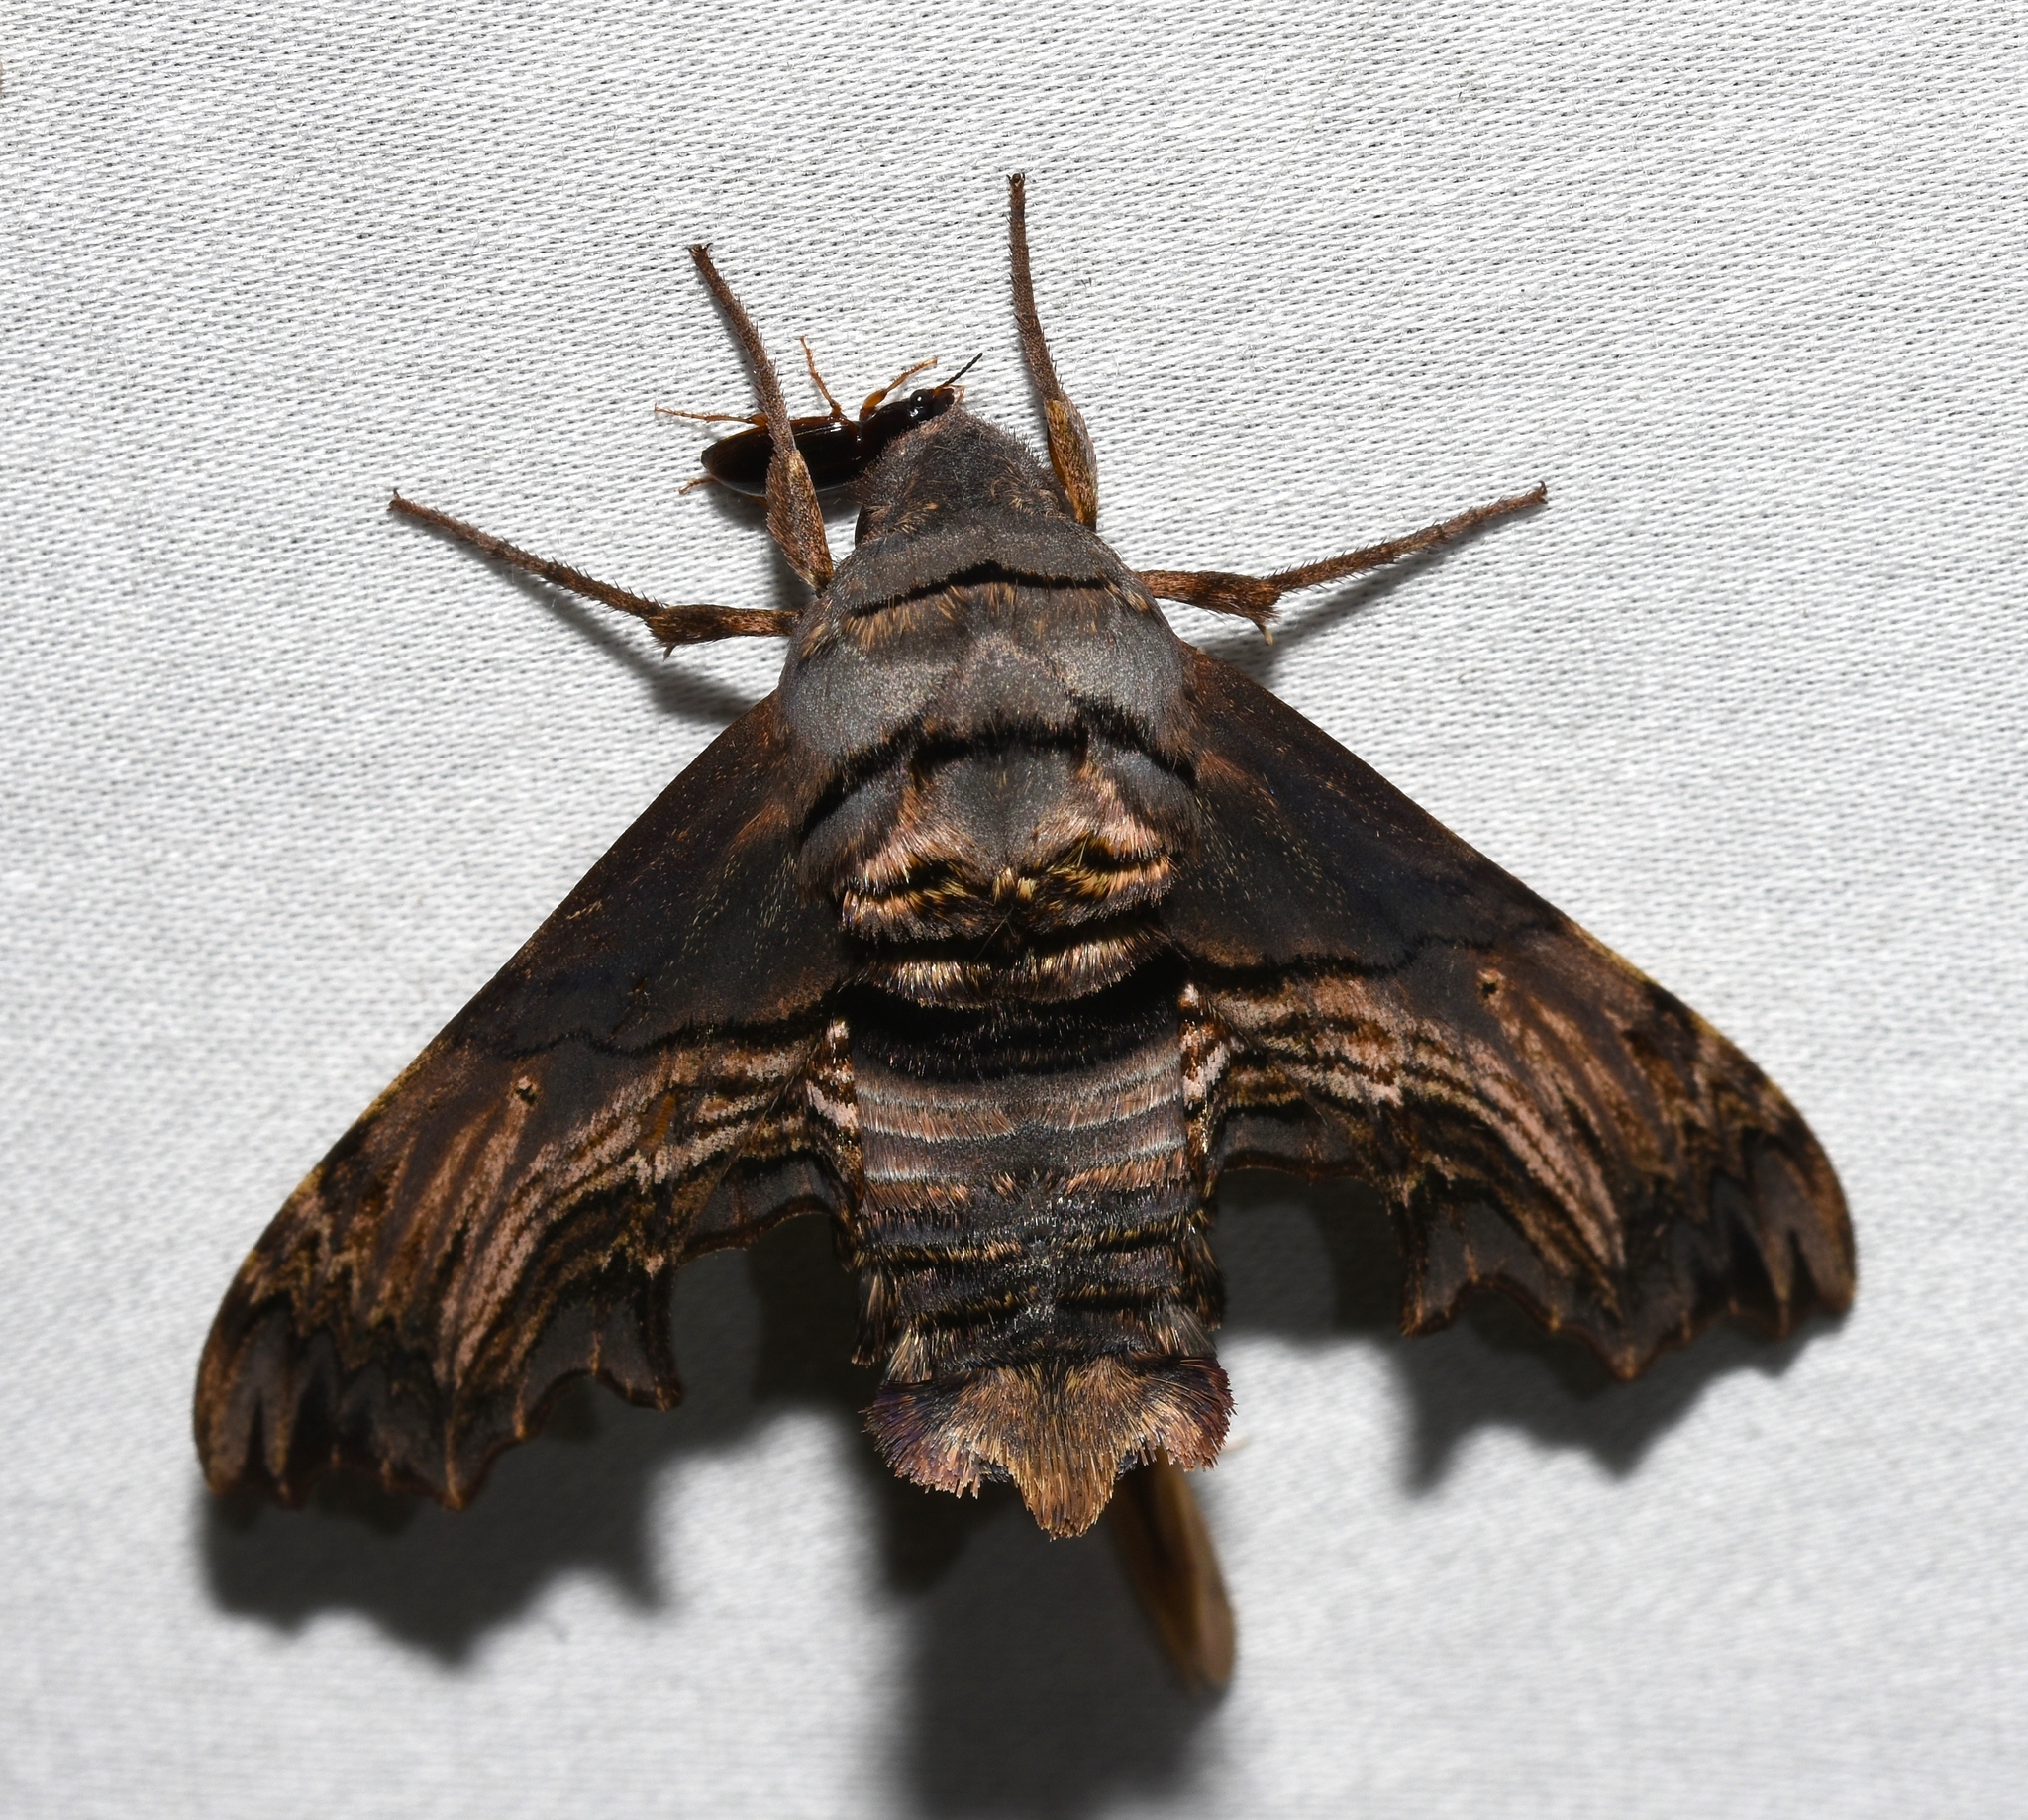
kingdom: Animalia
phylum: Arthropoda
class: Insecta
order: Lepidoptera
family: Sphingidae
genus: Sphecodina
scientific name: Sphecodina abbottii
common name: Abbott's sphinx
